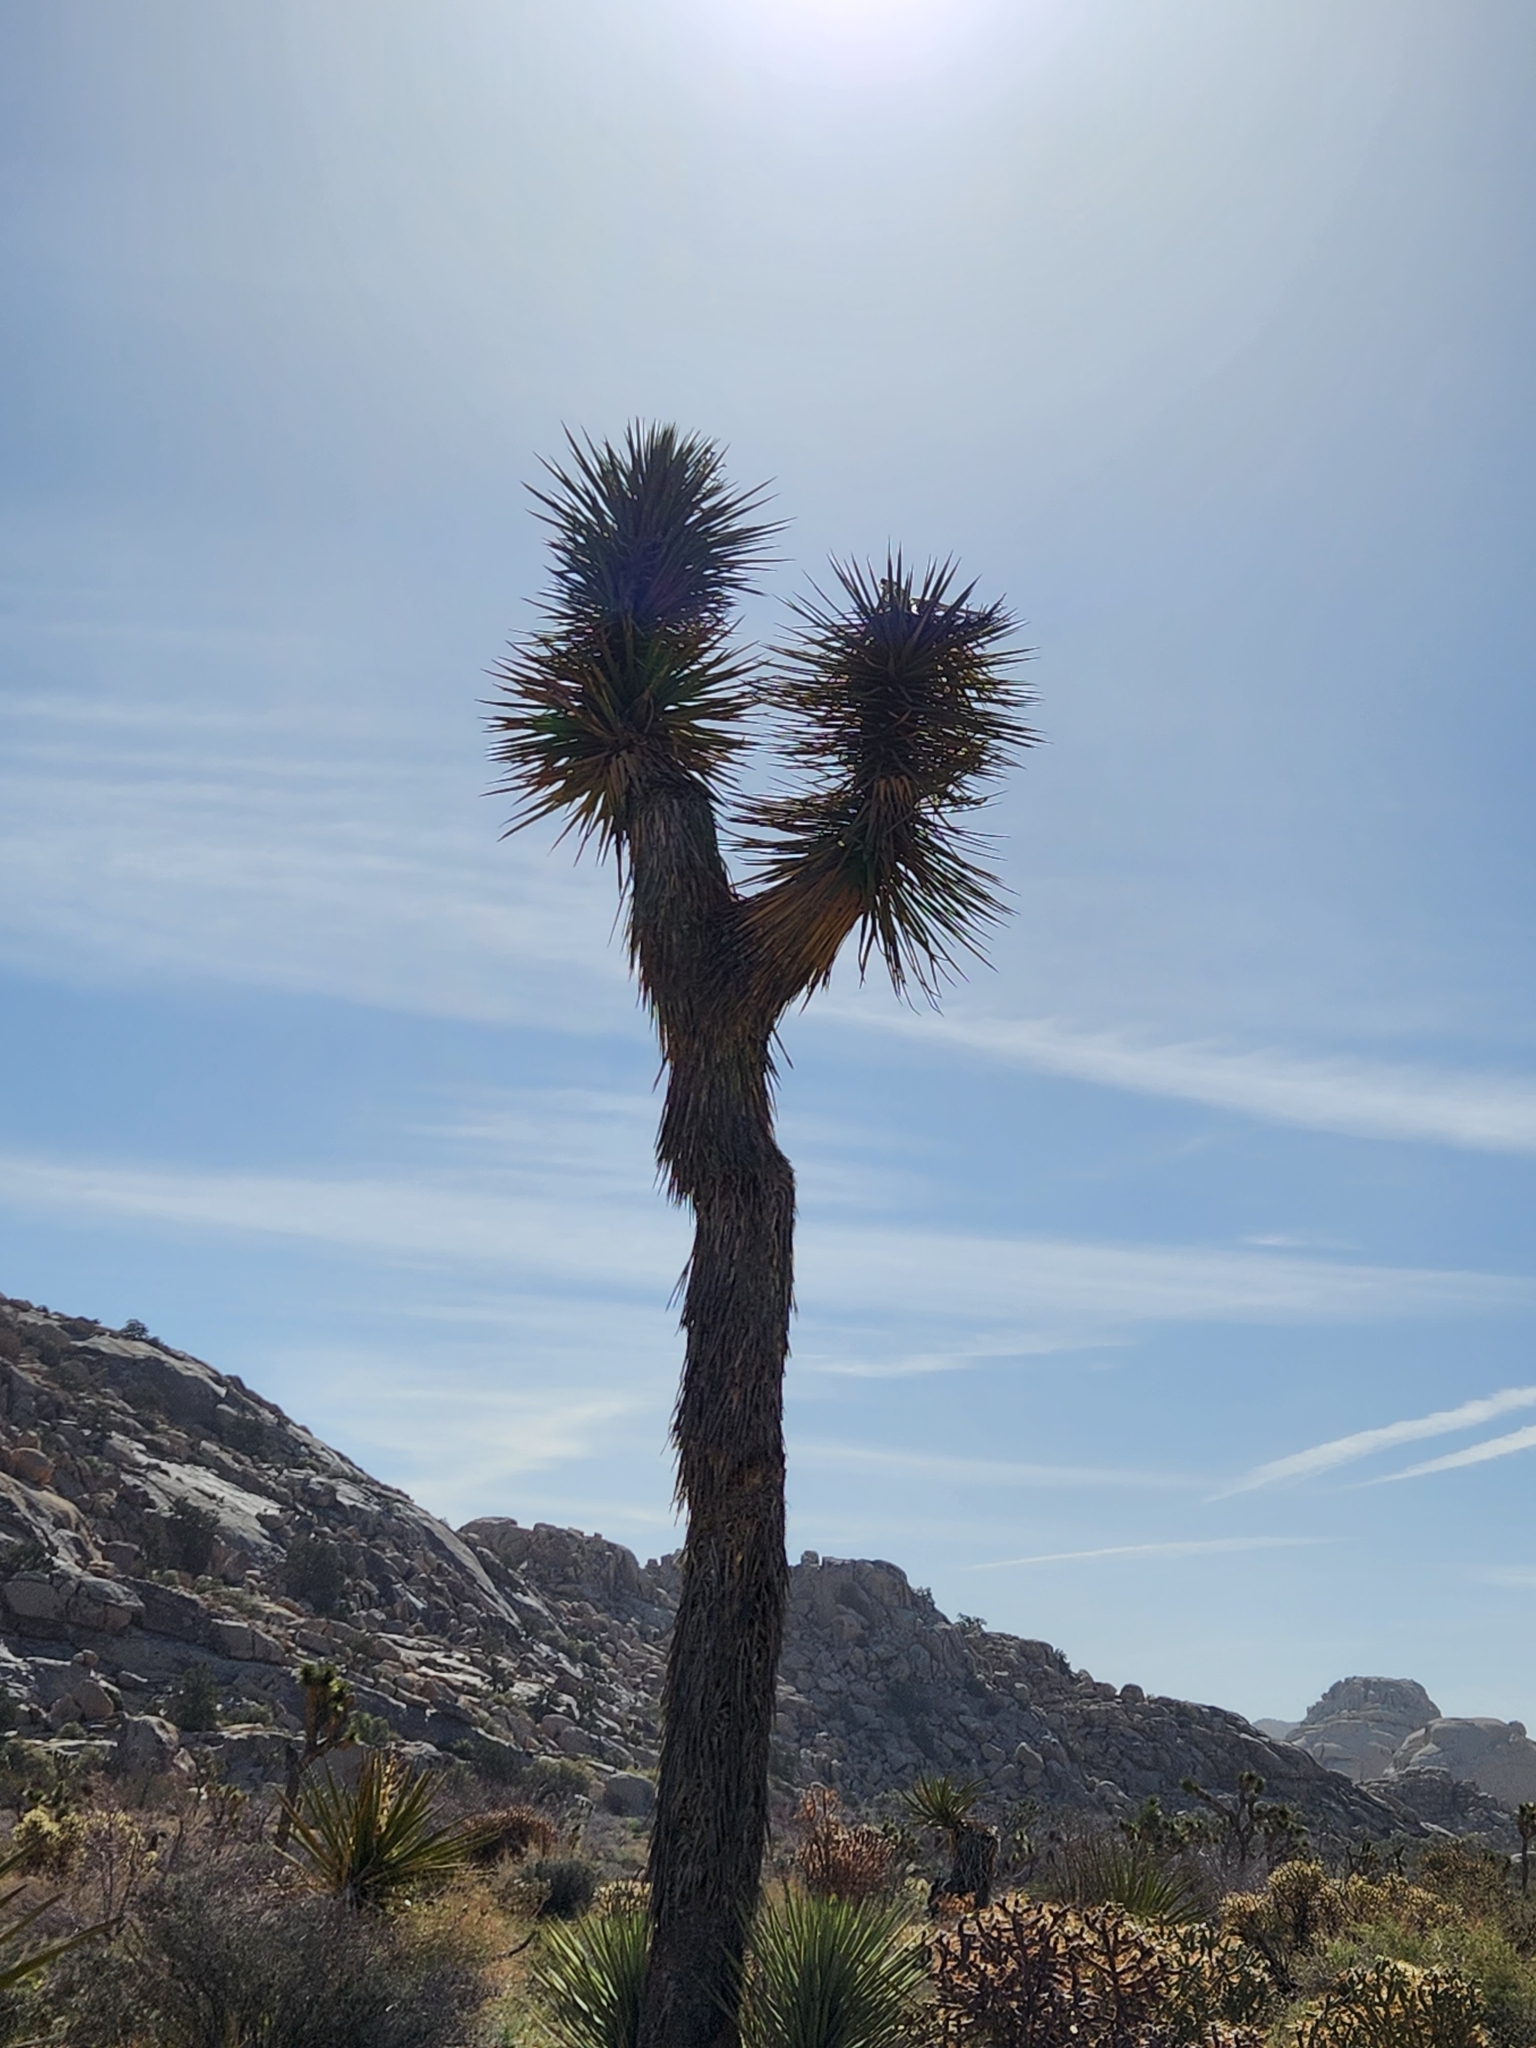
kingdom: Plantae
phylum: Tracheophyta
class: Liliopsida
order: Asparagales
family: Asparagaceae
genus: Yucca
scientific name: Yucca brevifolia
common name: Joshua tree
